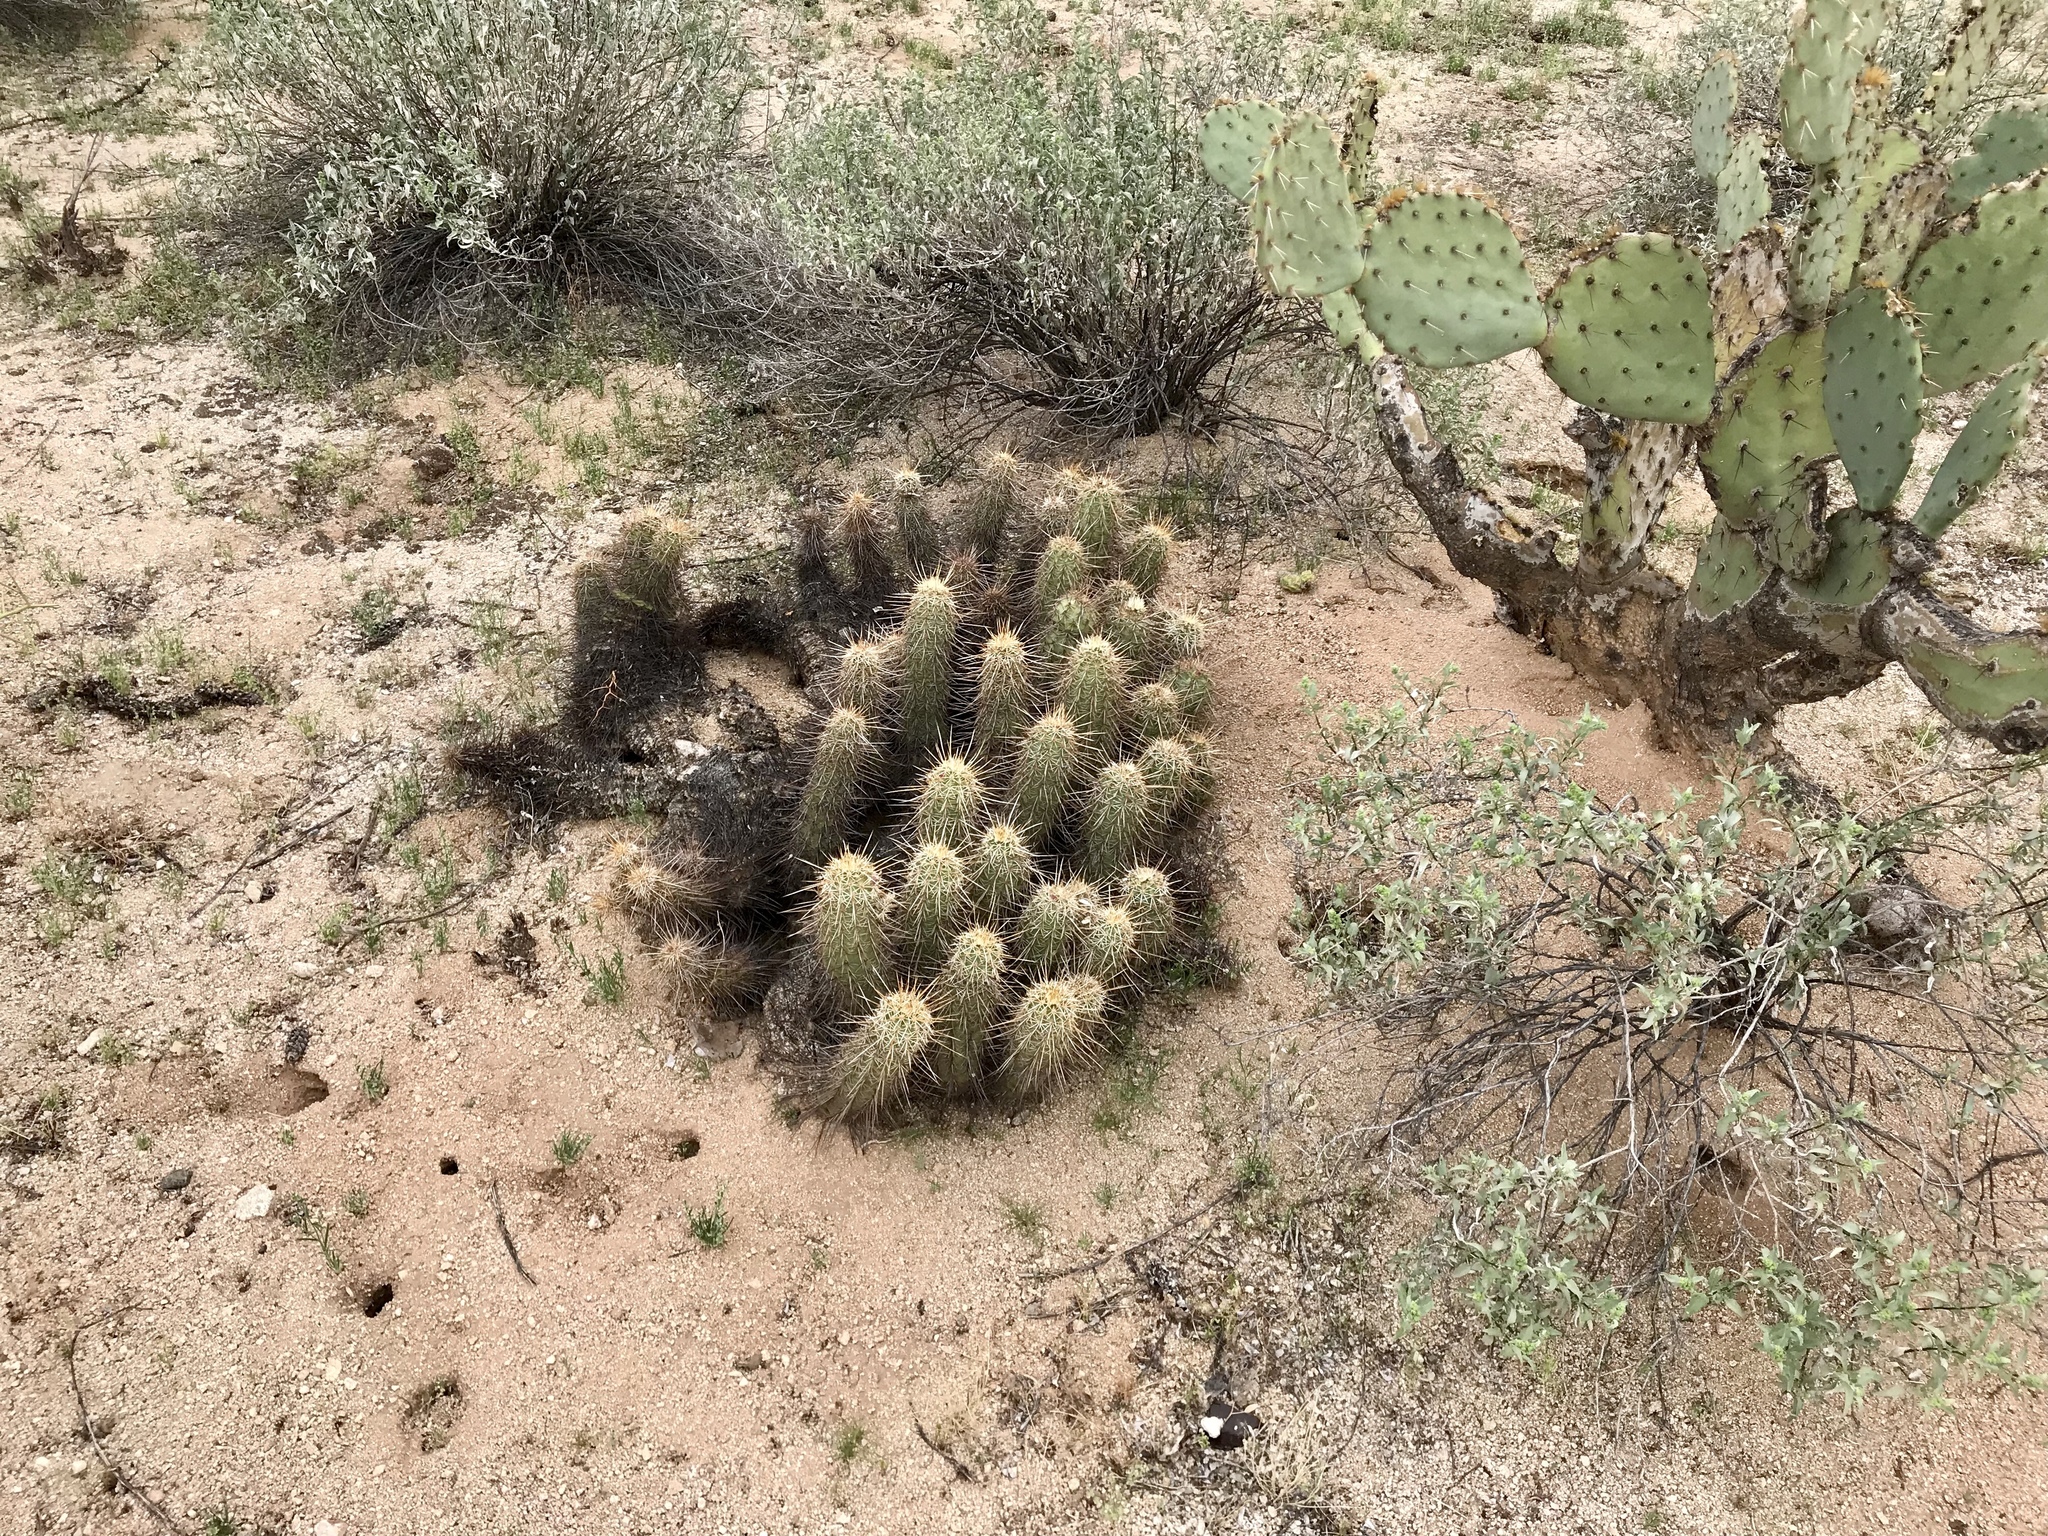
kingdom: Plantae
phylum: Tracheophyta
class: Magnoliopsida
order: Caryophyllales
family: Cactaceae
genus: Echinocereus
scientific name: Echinocereus fasciculatus
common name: Bundle hedgehog
